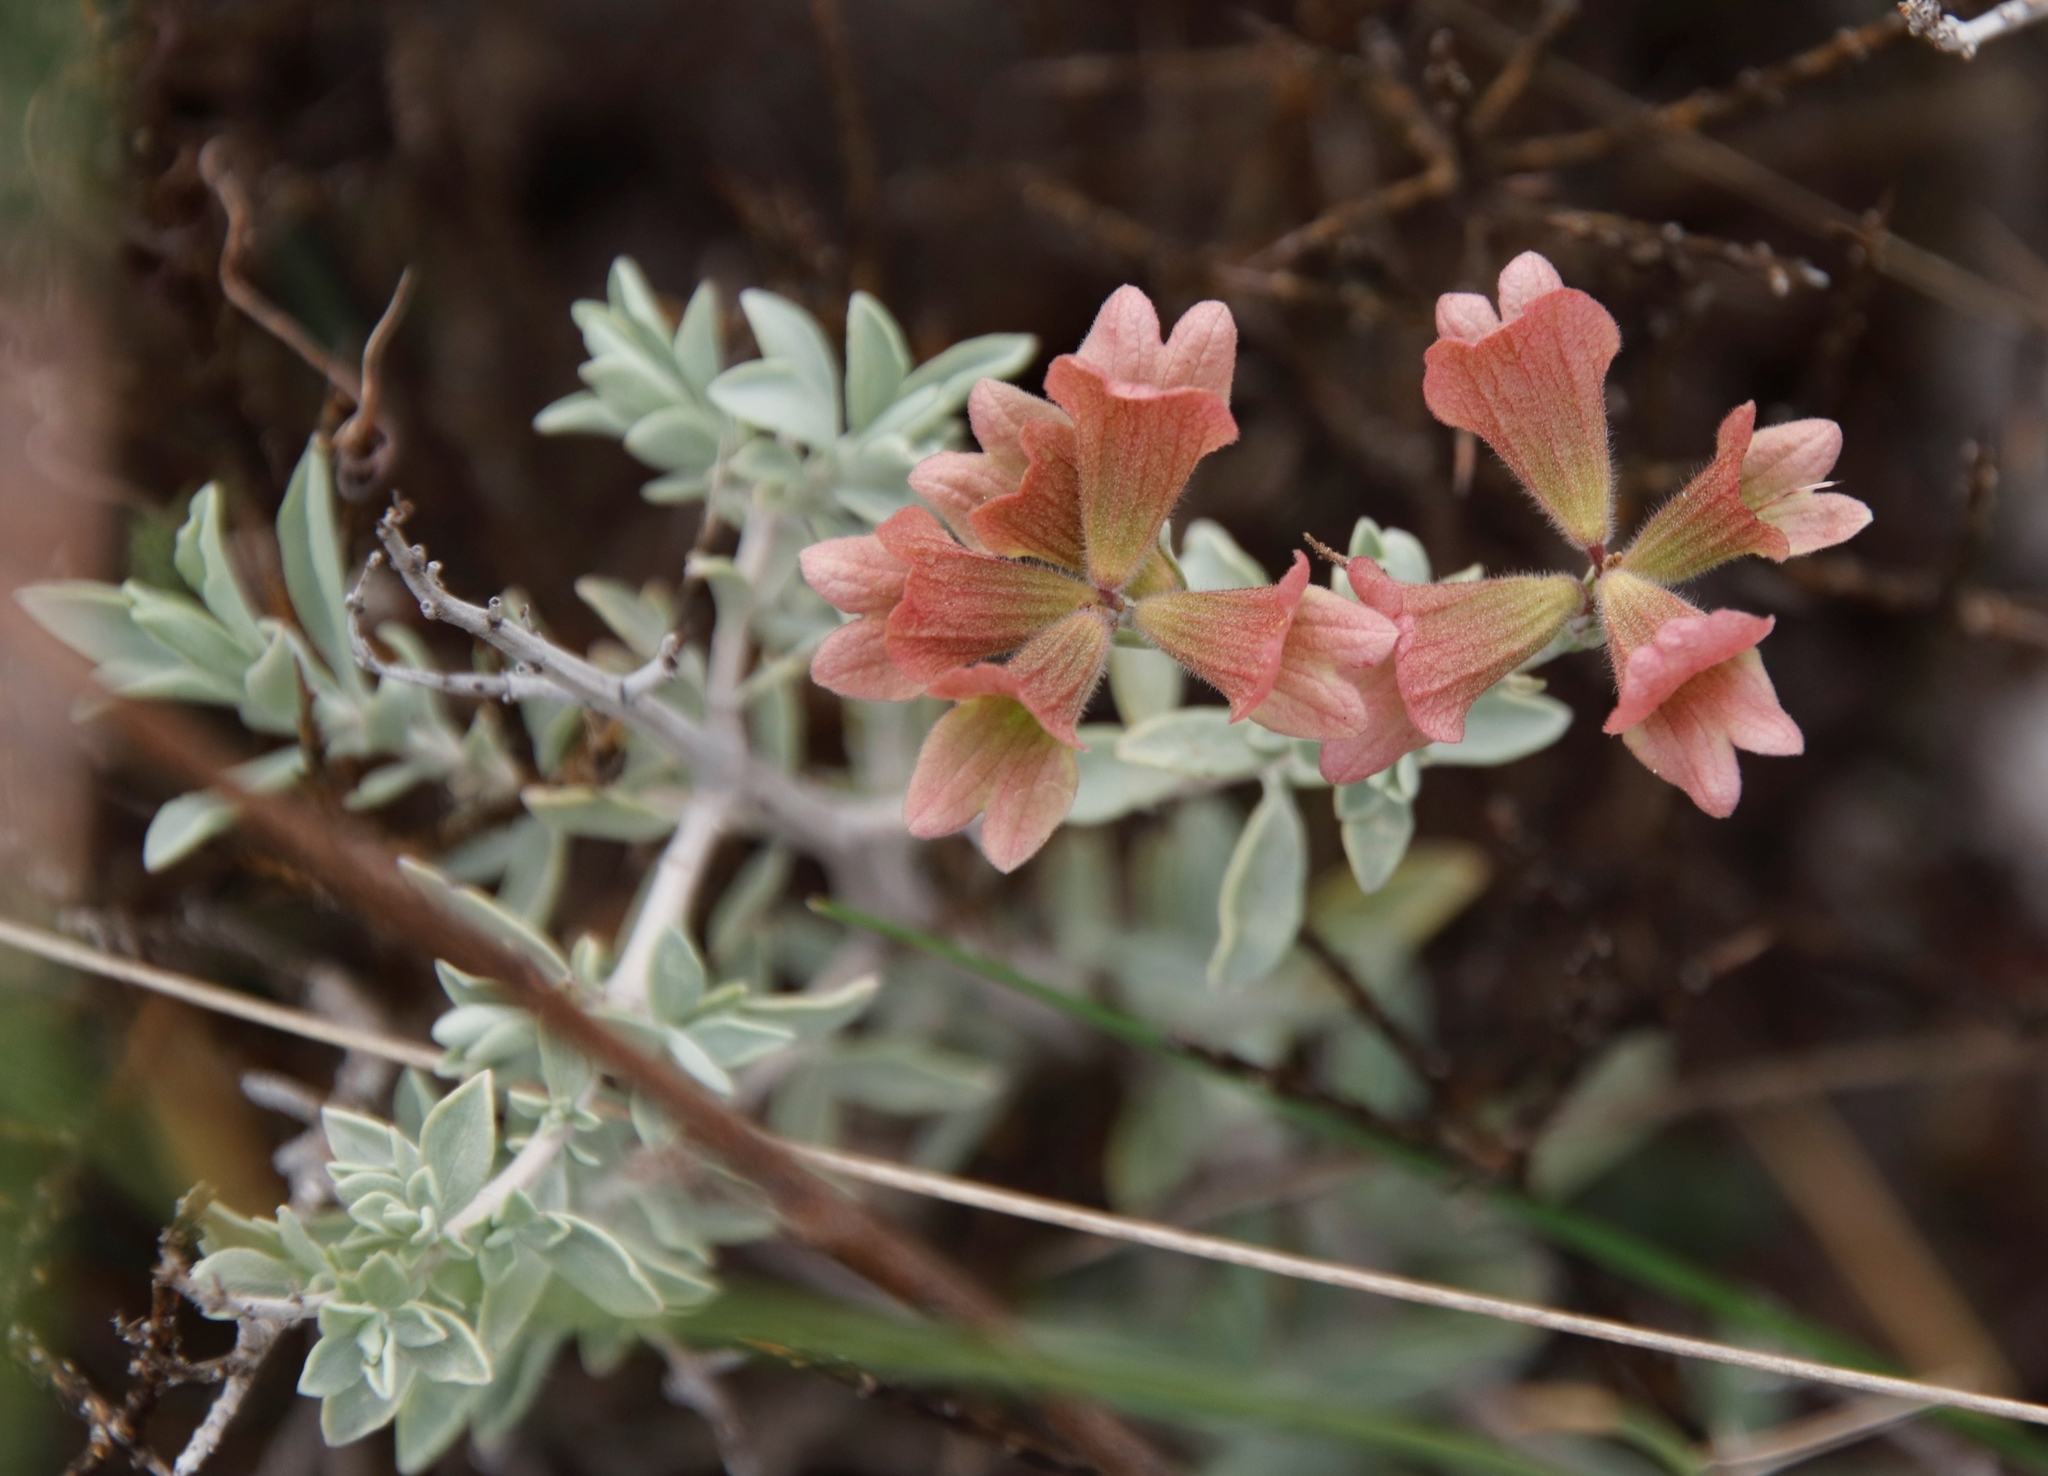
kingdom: Plantae
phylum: Tracheophyta
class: Magnoliopsida
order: Lamiales
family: Lamiaceae
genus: Salvia
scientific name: Salvia lanceolata
